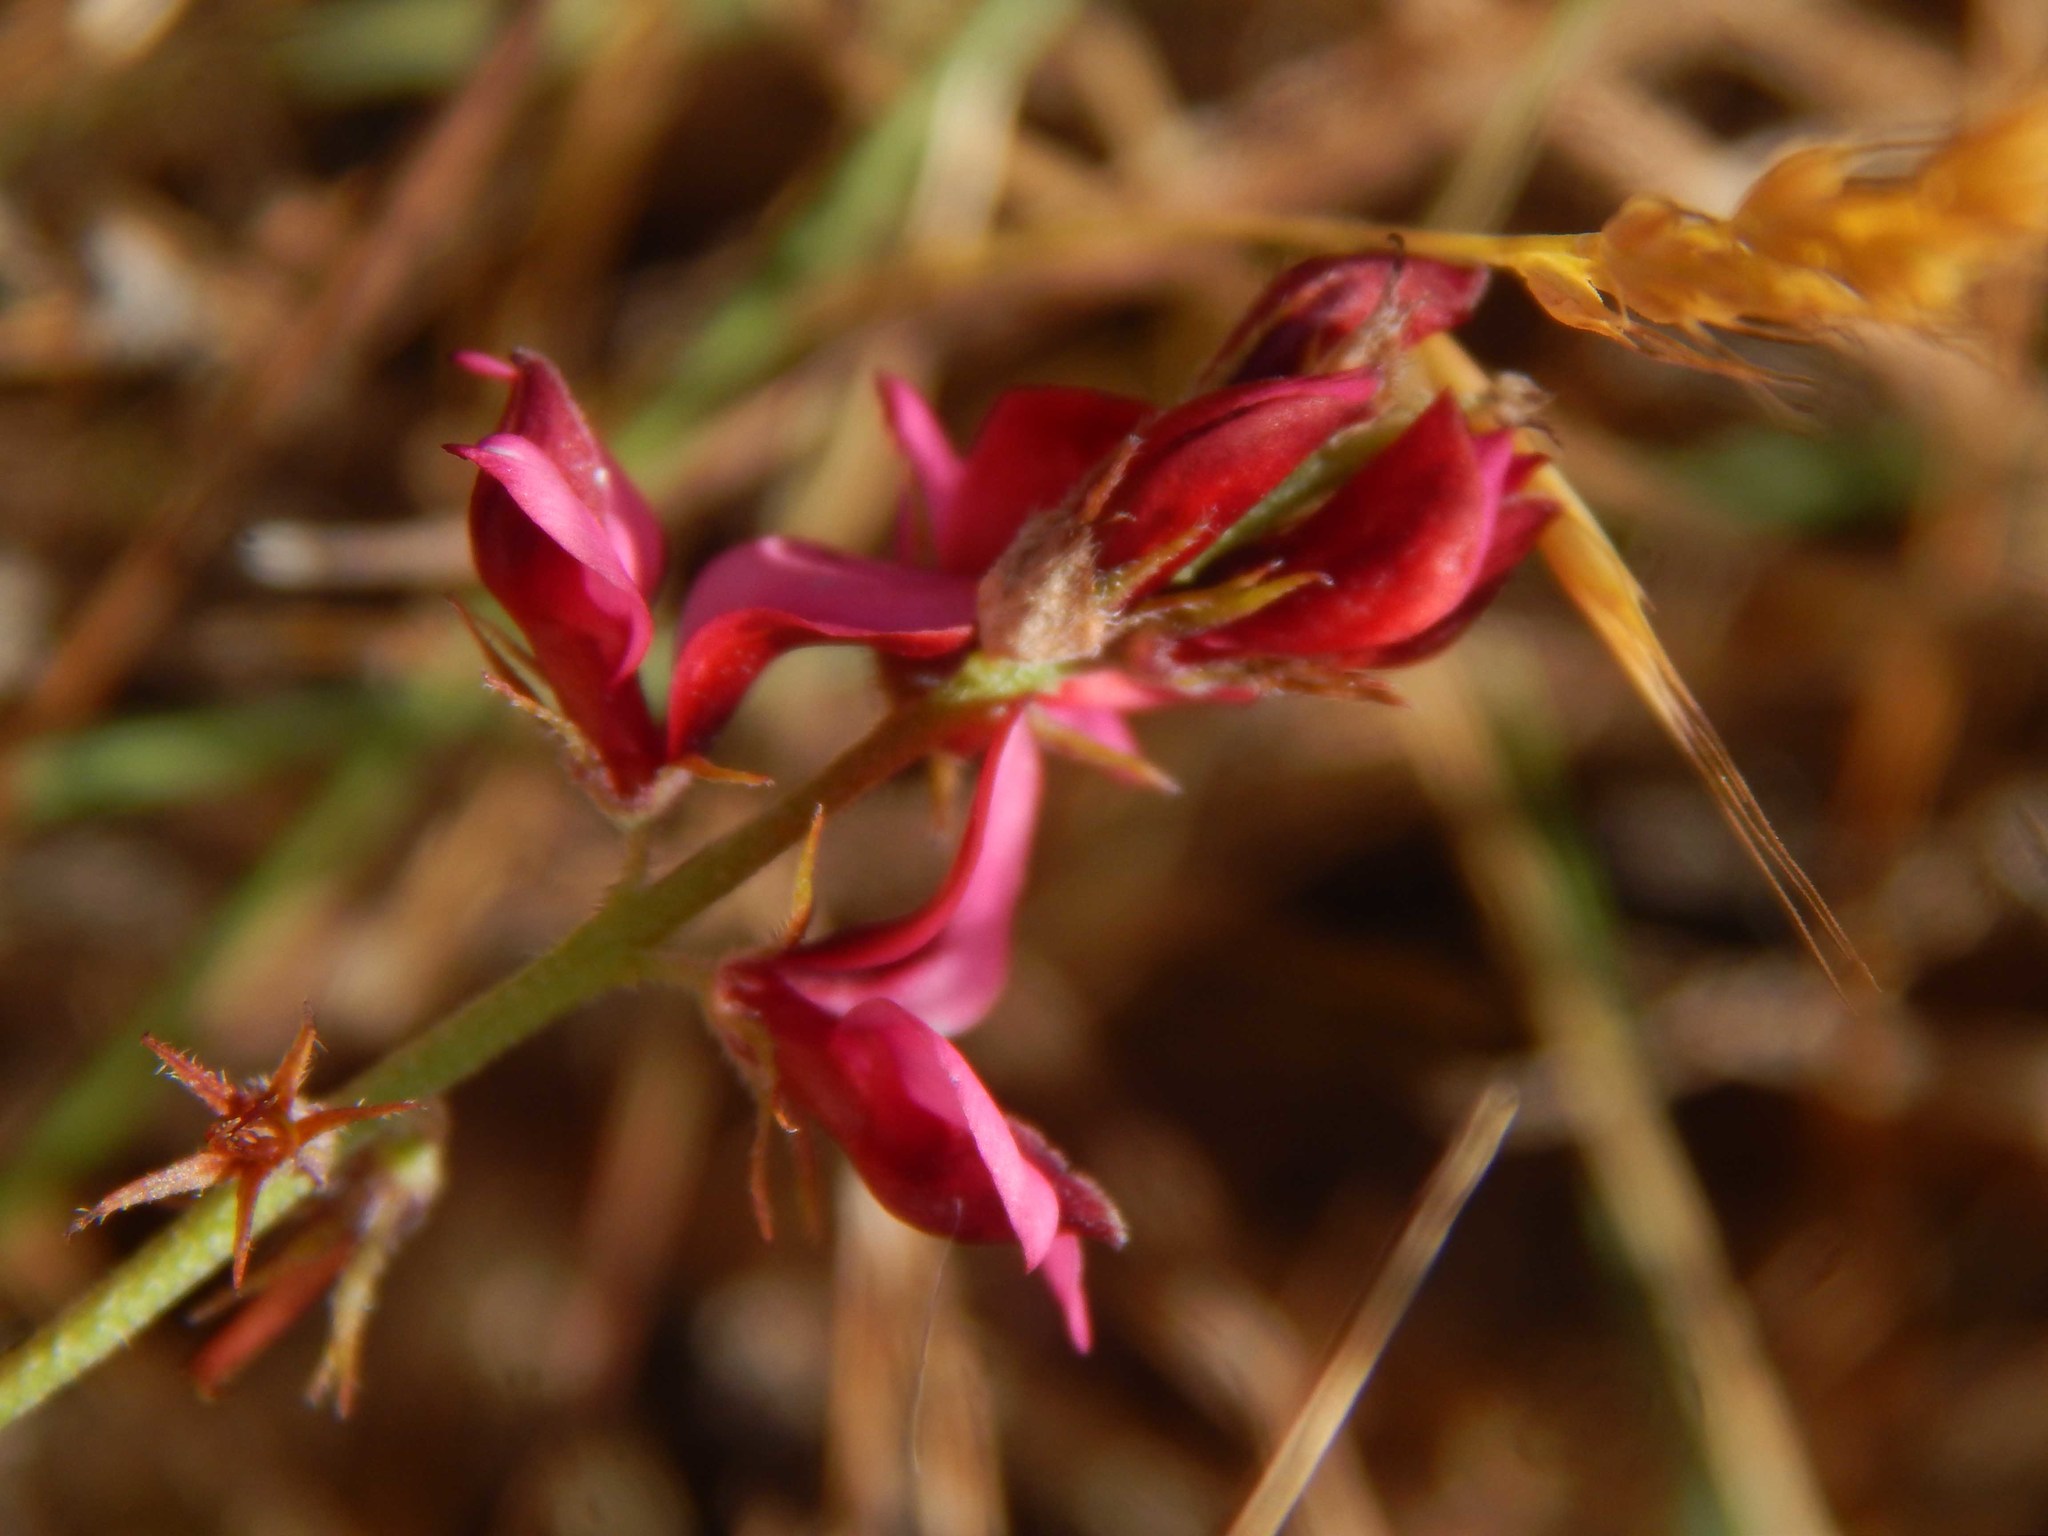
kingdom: Plantae
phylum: Tracheophyta
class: Magnoliopsida
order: Fabales
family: Fabaceae
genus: Indigofera
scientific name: Indigofera incana
